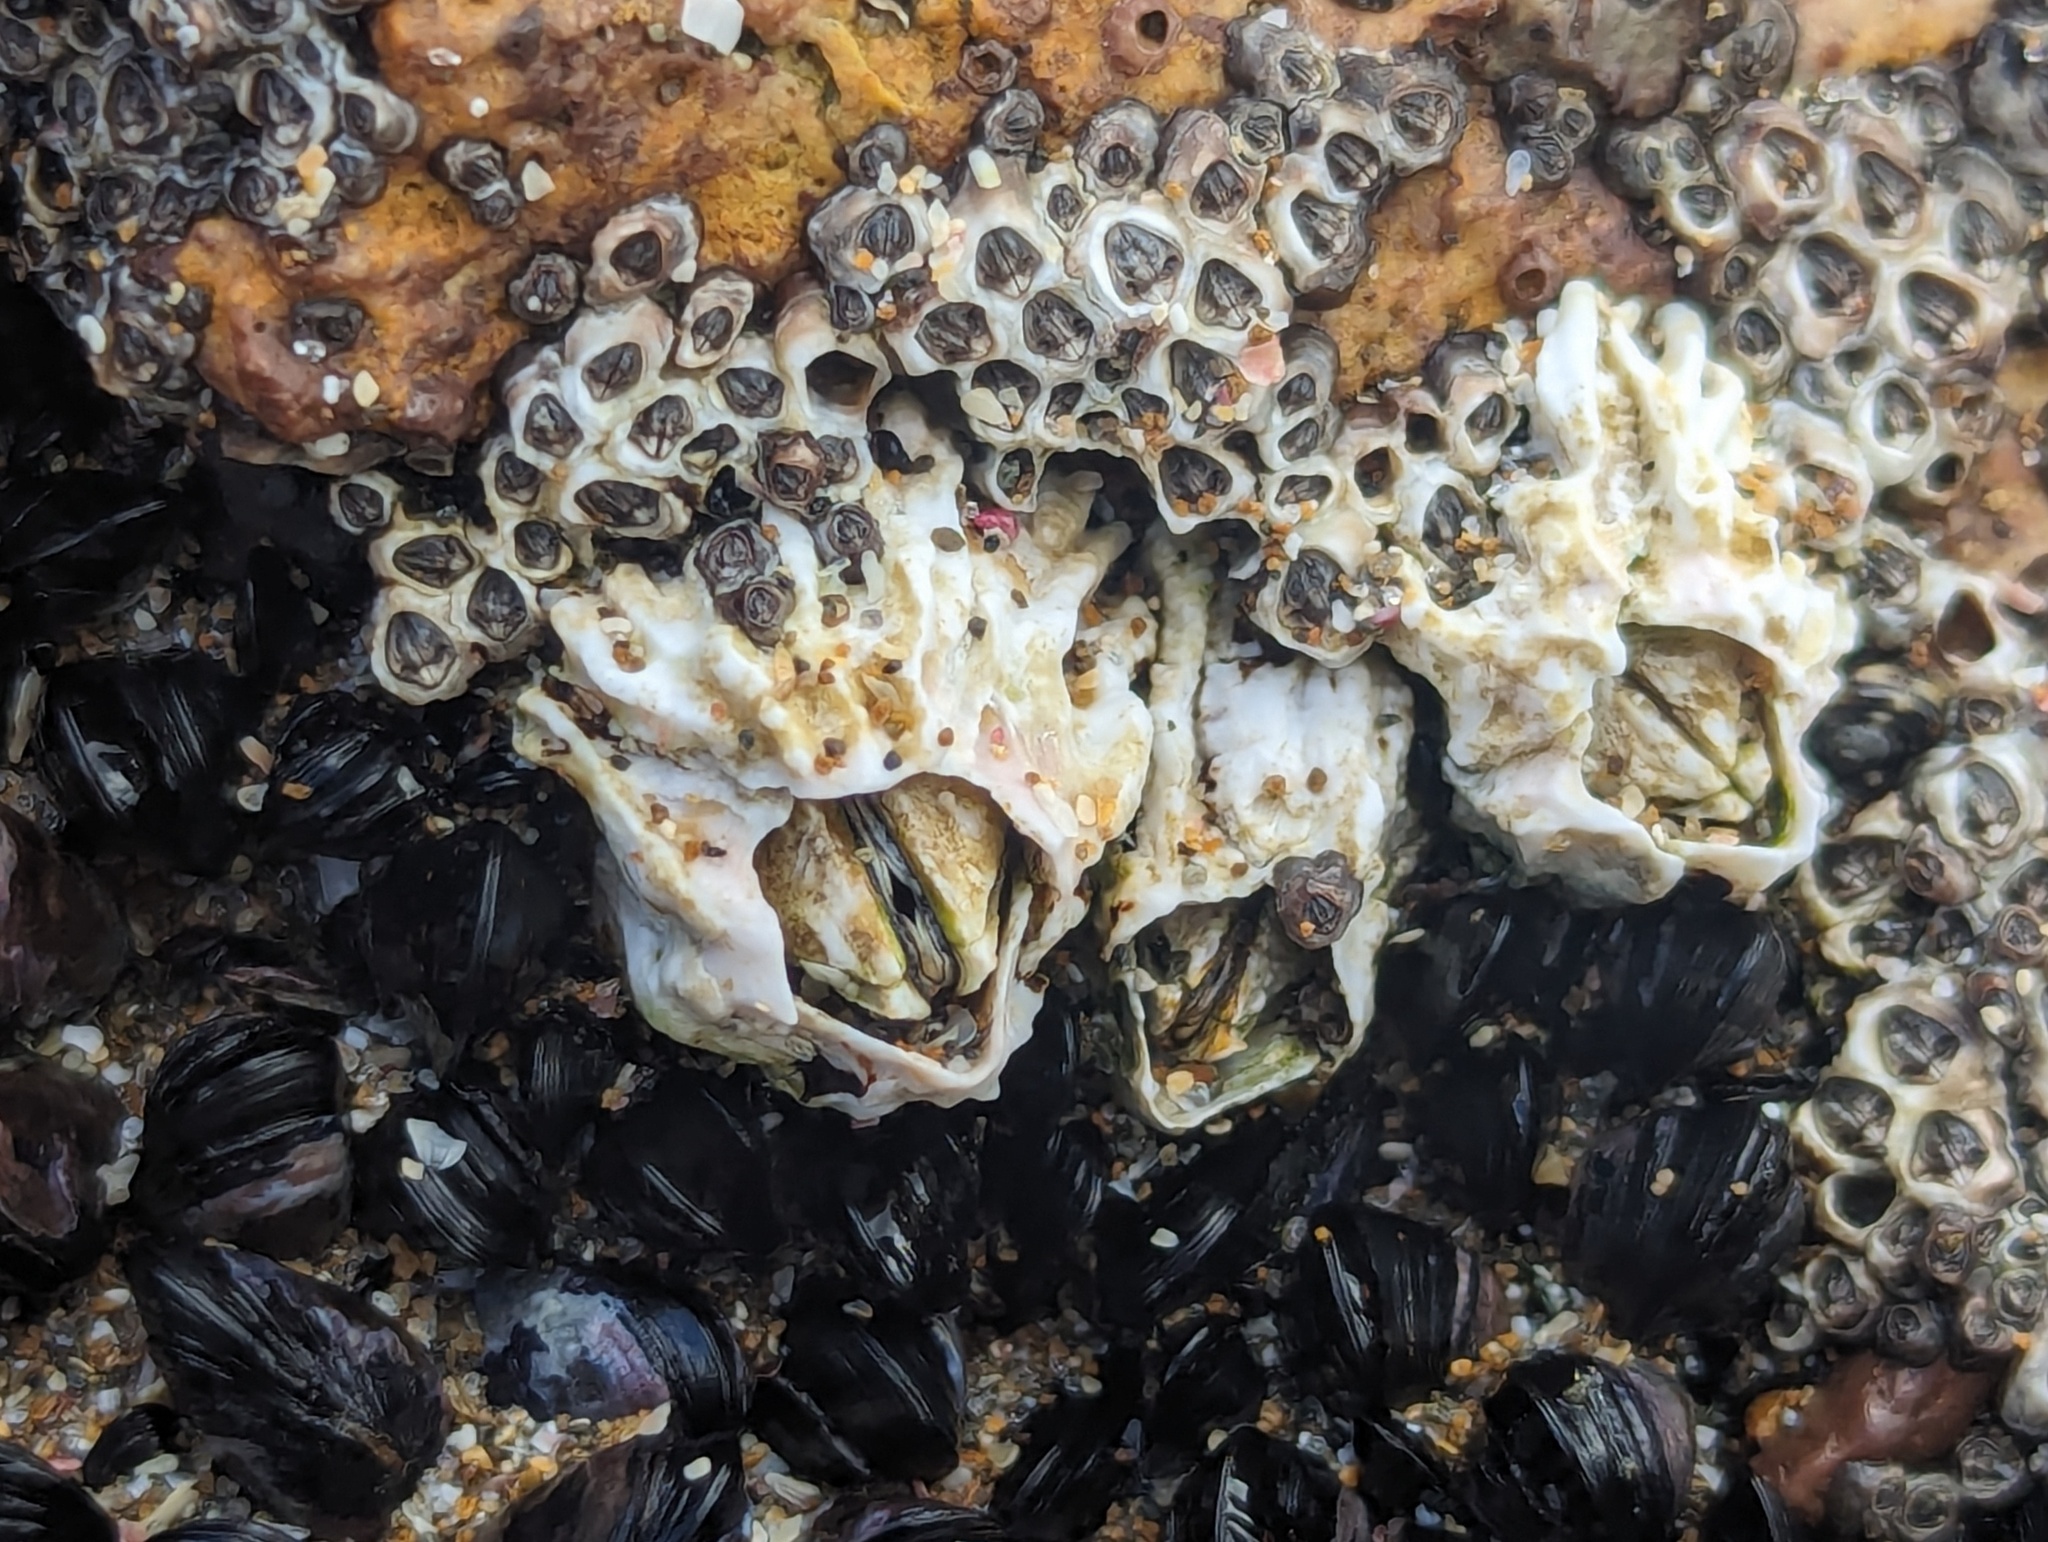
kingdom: Animalia
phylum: Arthropoda
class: Maxillopoda
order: Sessilia
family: Tetraclitidae
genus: Epopella
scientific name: Epopella plicata
